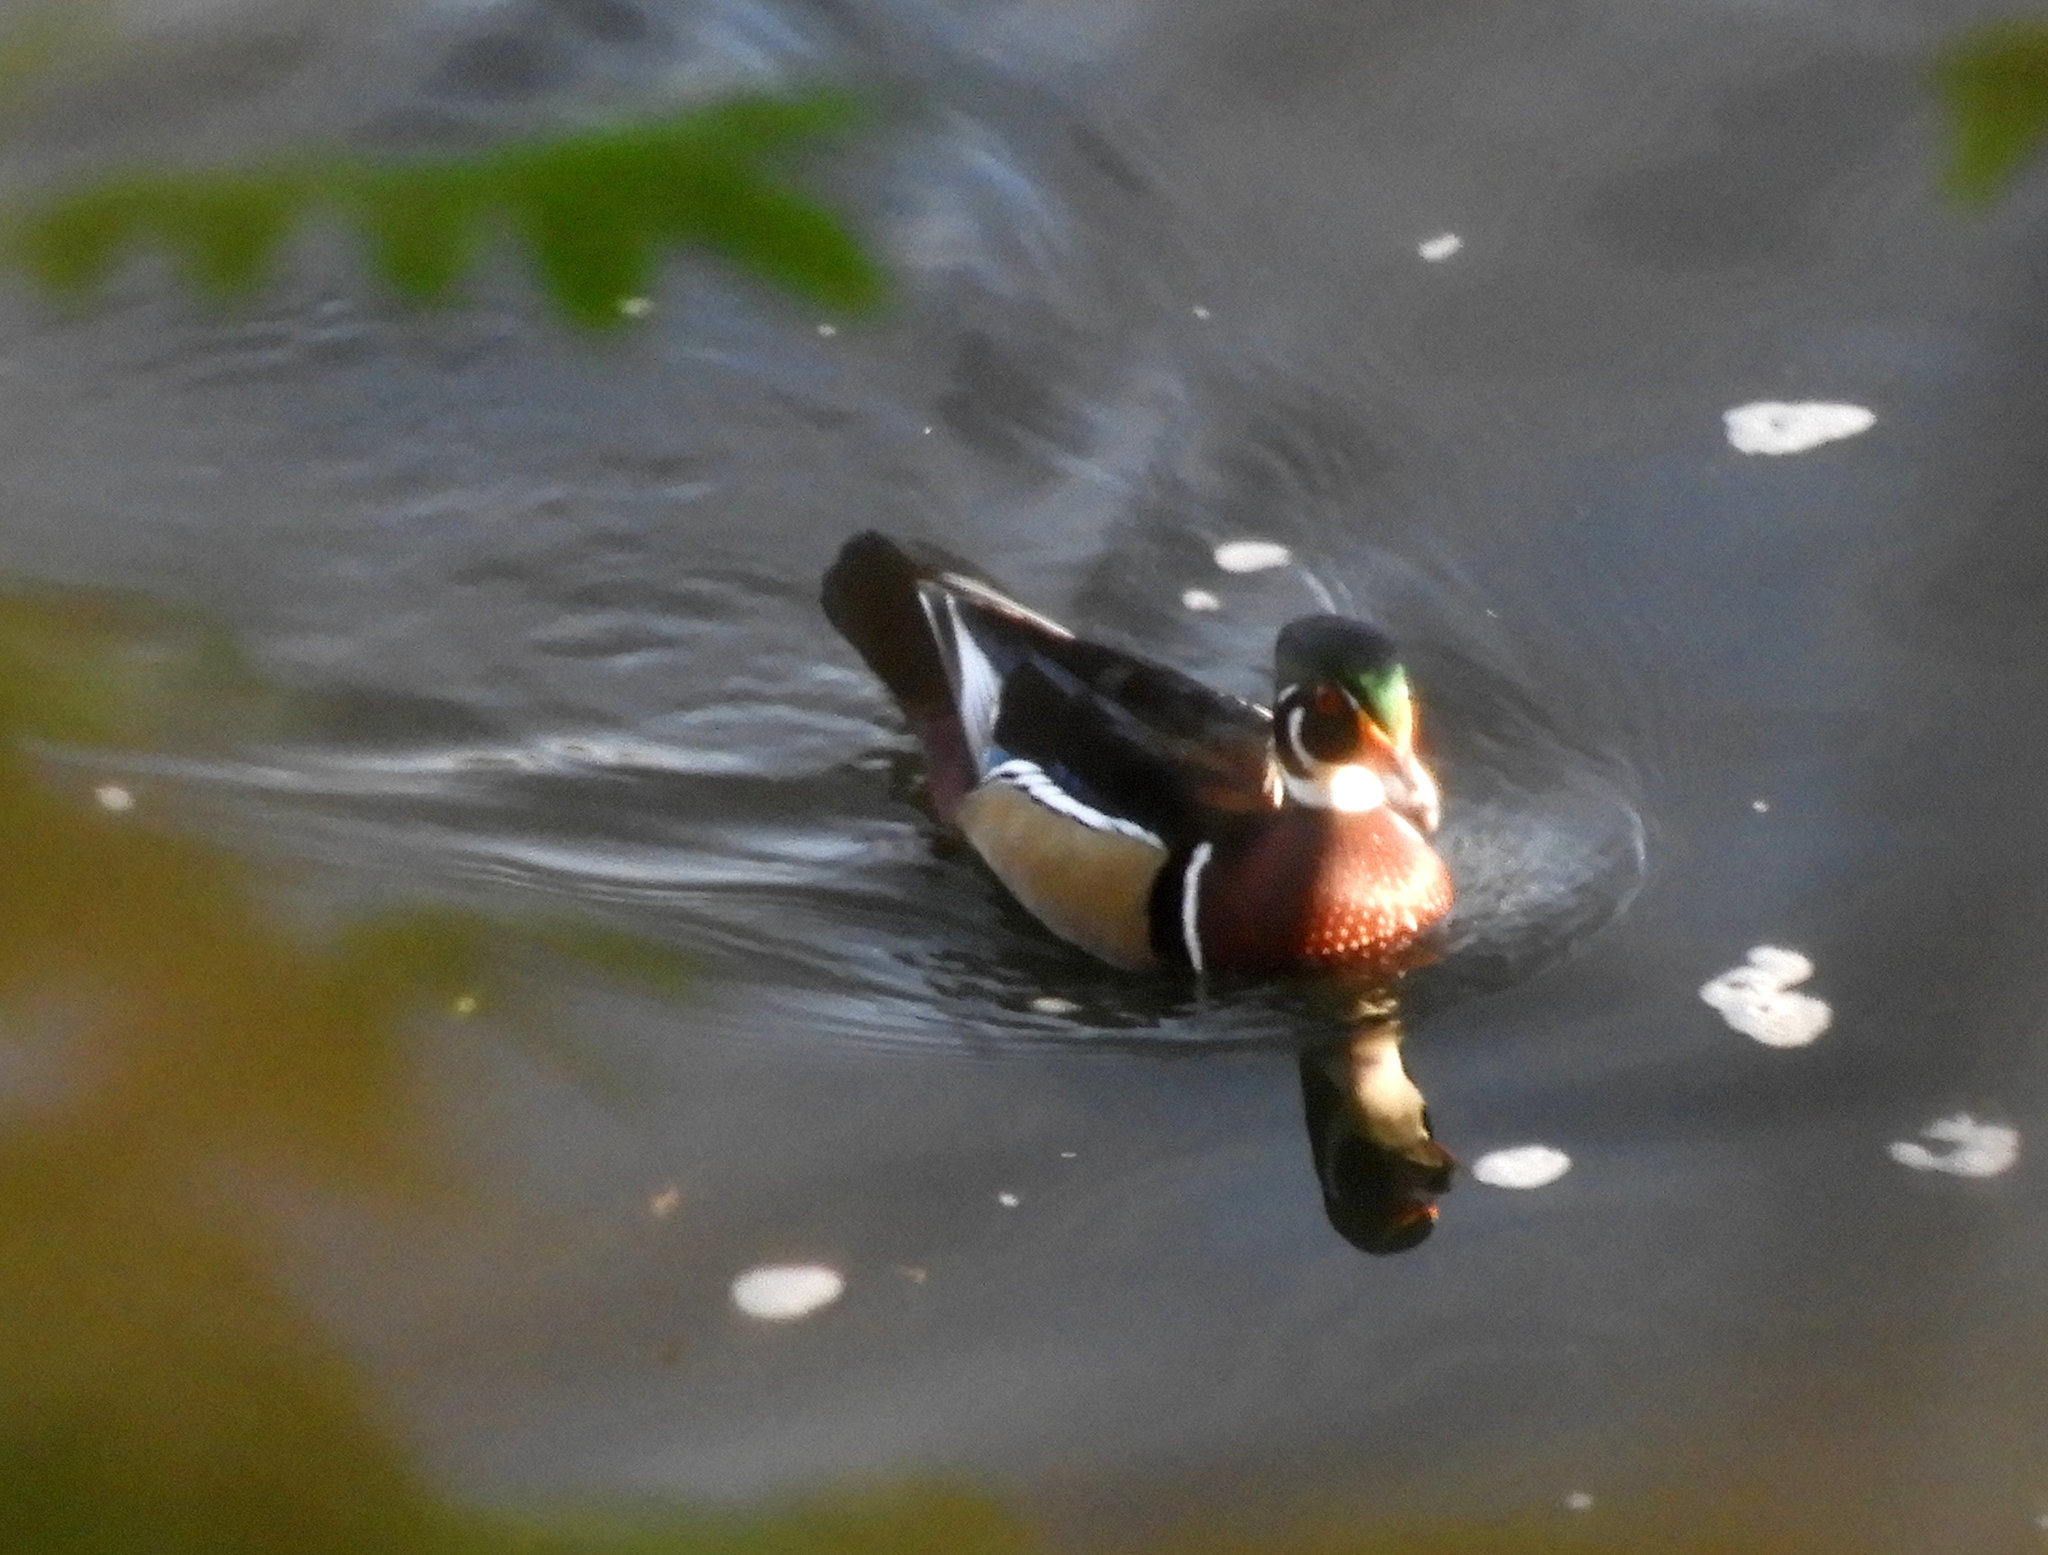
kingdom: Animalia
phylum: Chordata
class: Aves
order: Anseriformes
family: Anatidae
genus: Aix
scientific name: Aix sponsa
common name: Wood duck
